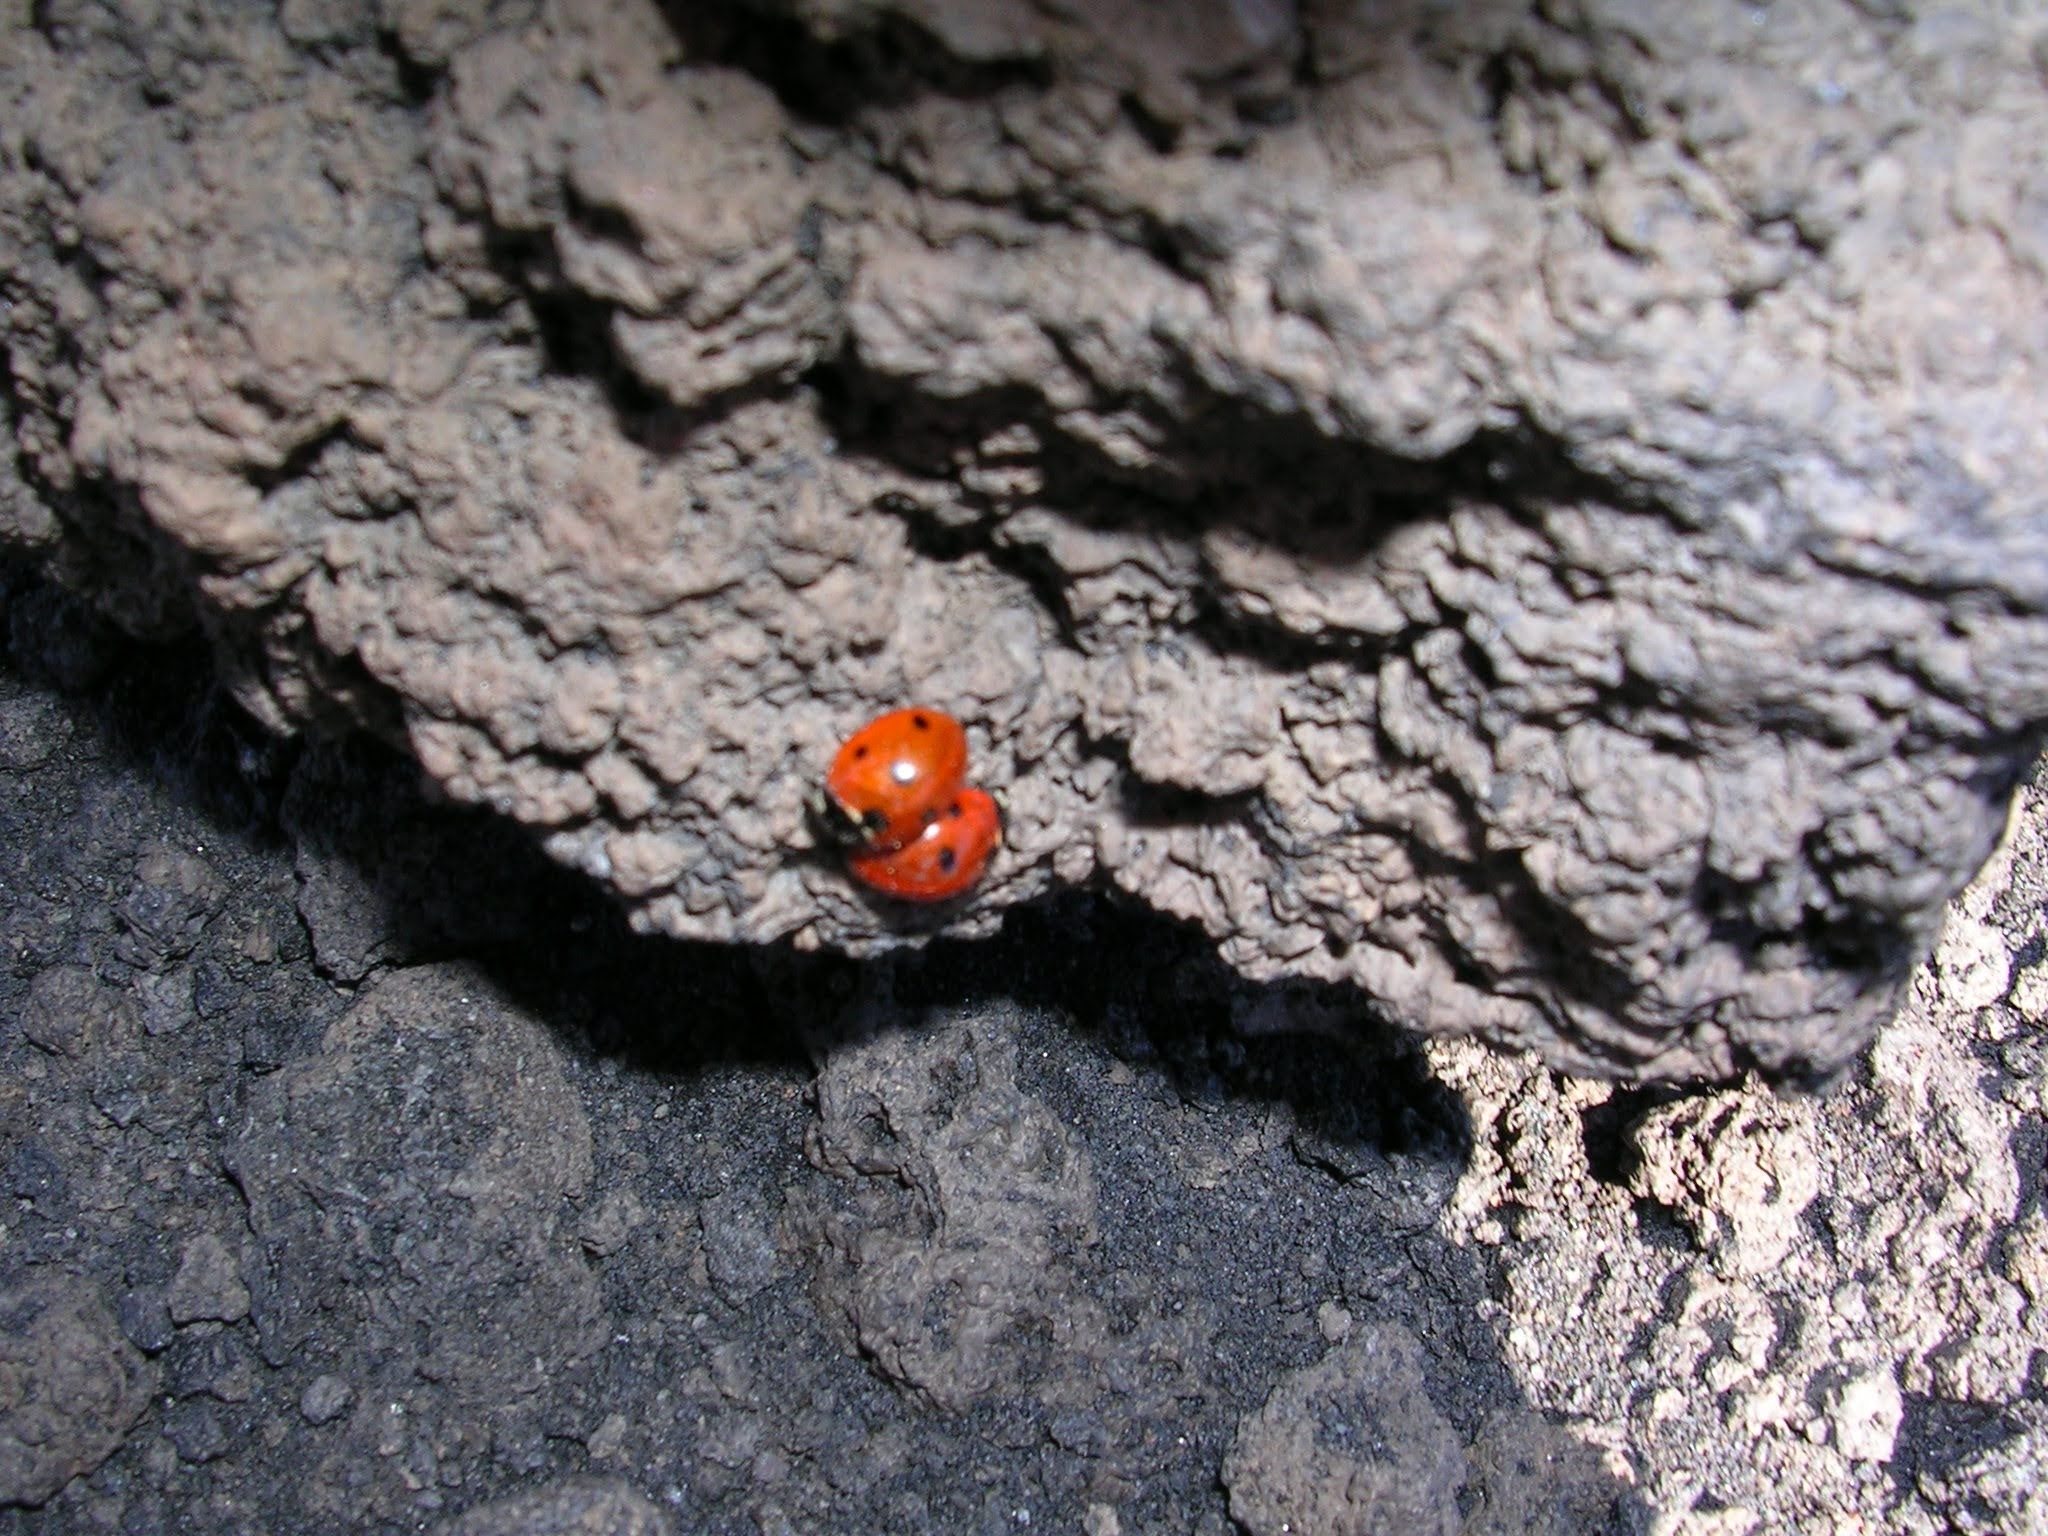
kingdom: Animalia
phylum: Arthropoda
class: Insecta
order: Coleoptera
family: Coccinellidae
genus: Coccinella
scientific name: Coccinella septempunctata
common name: Sevenspotted lady beetle
